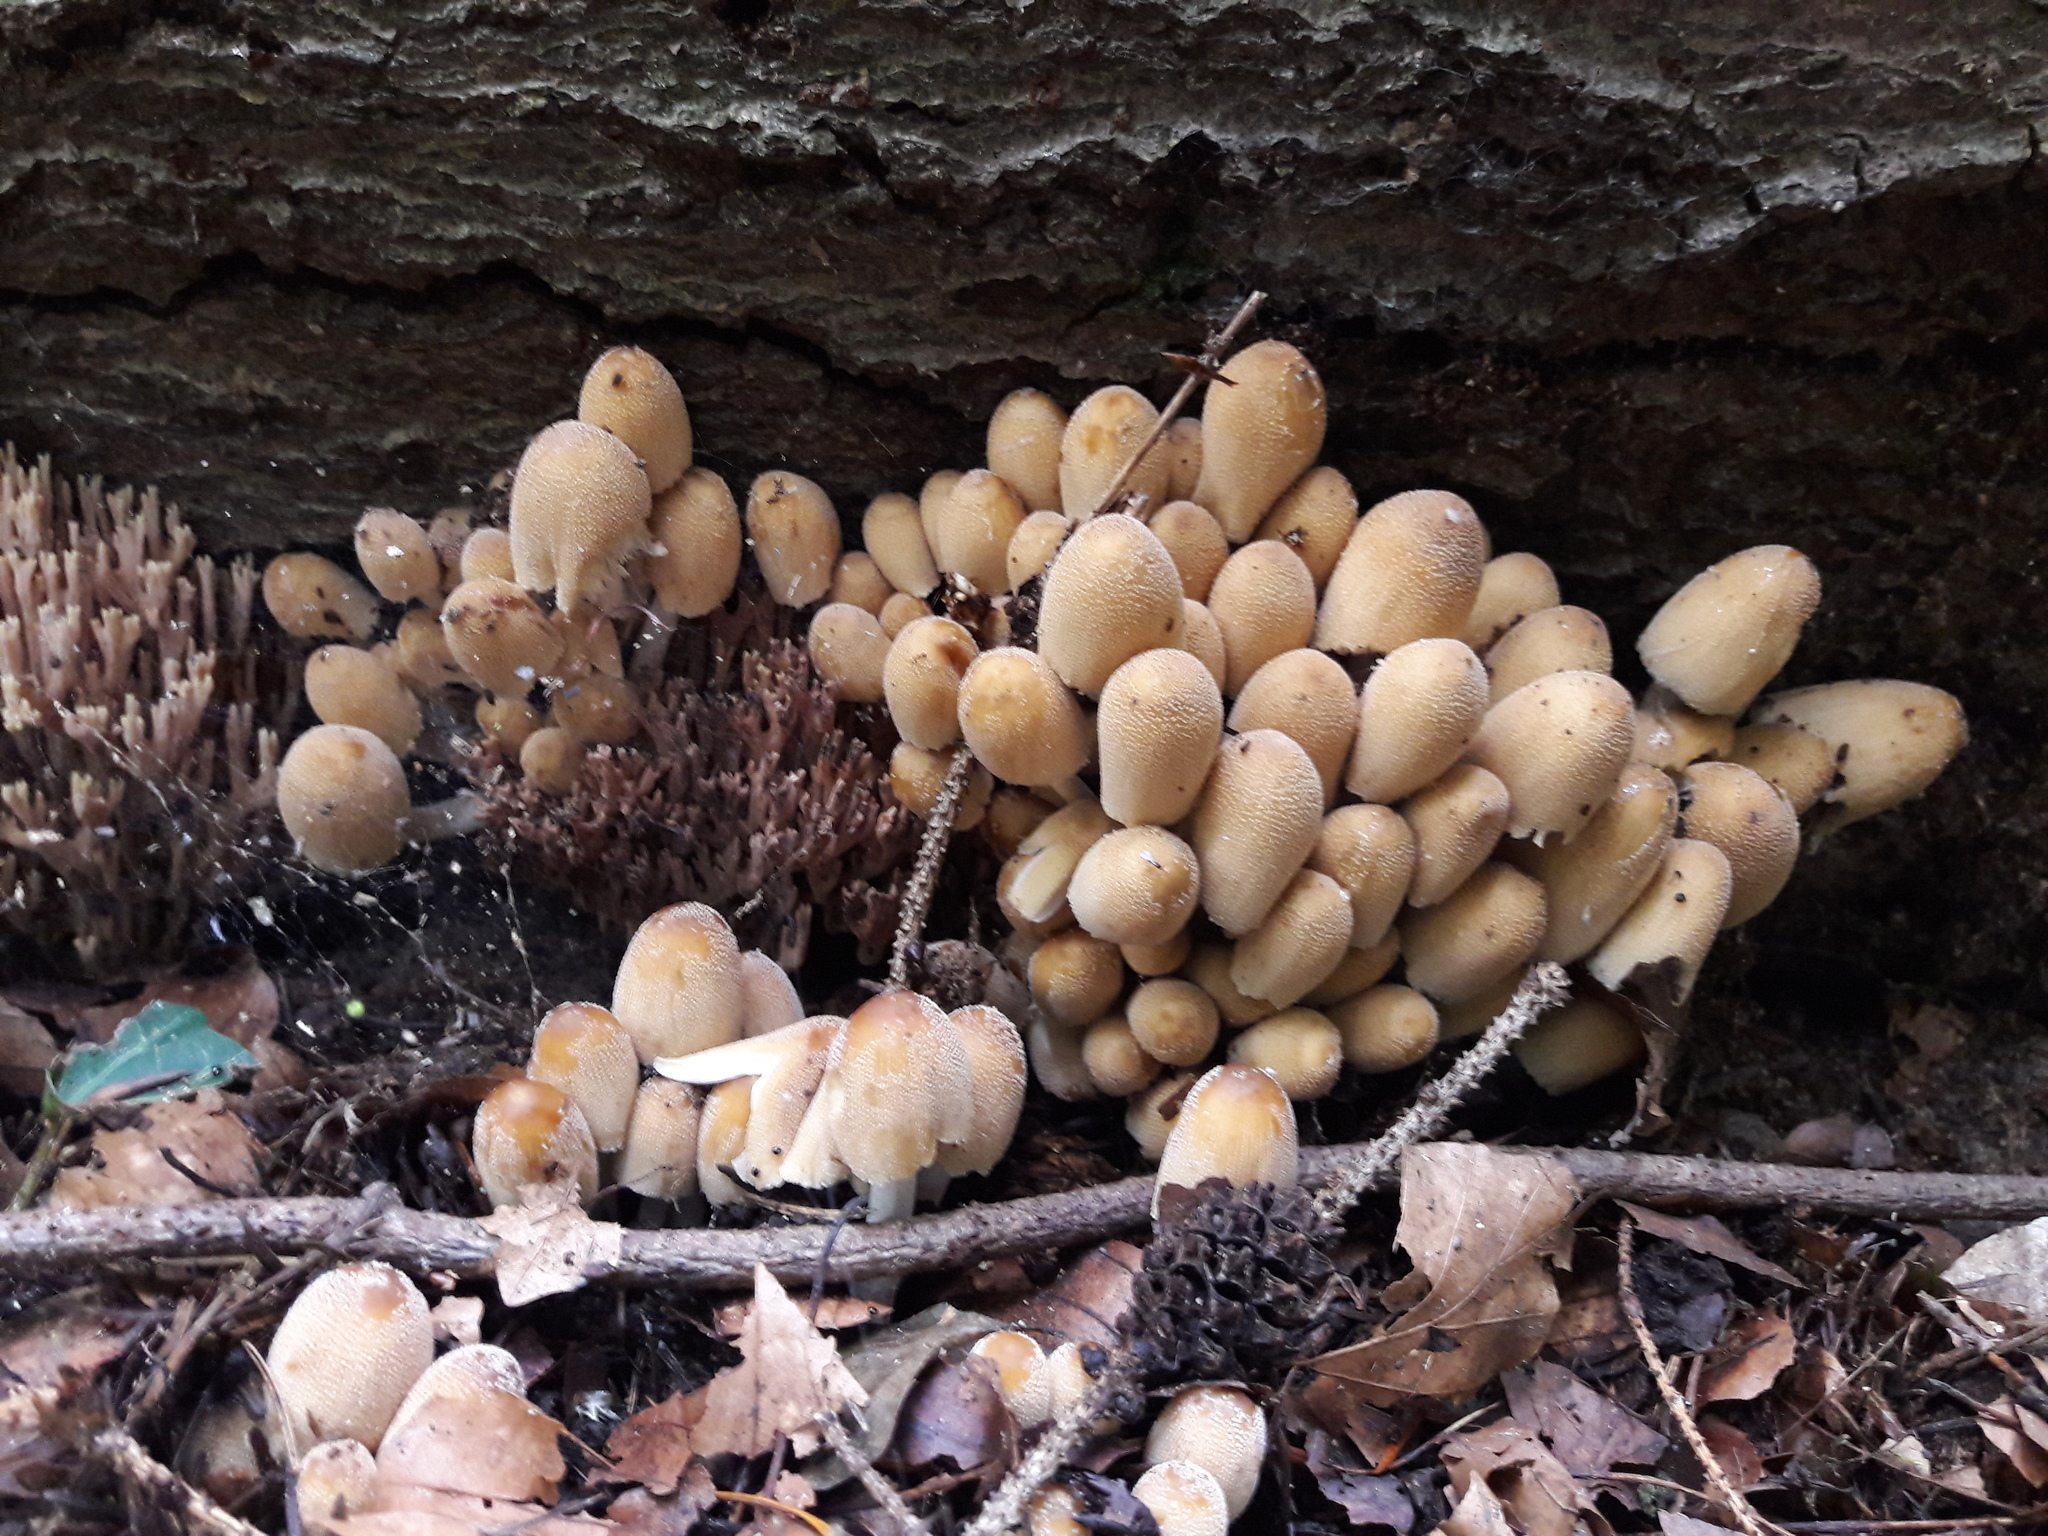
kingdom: Fungi
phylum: Basidiomycota
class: Agaricomycetes
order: Agaricales
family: Psathyrellaceae
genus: Coprinellus
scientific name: Coprinellus micaceus
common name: Glistening ink-cap
